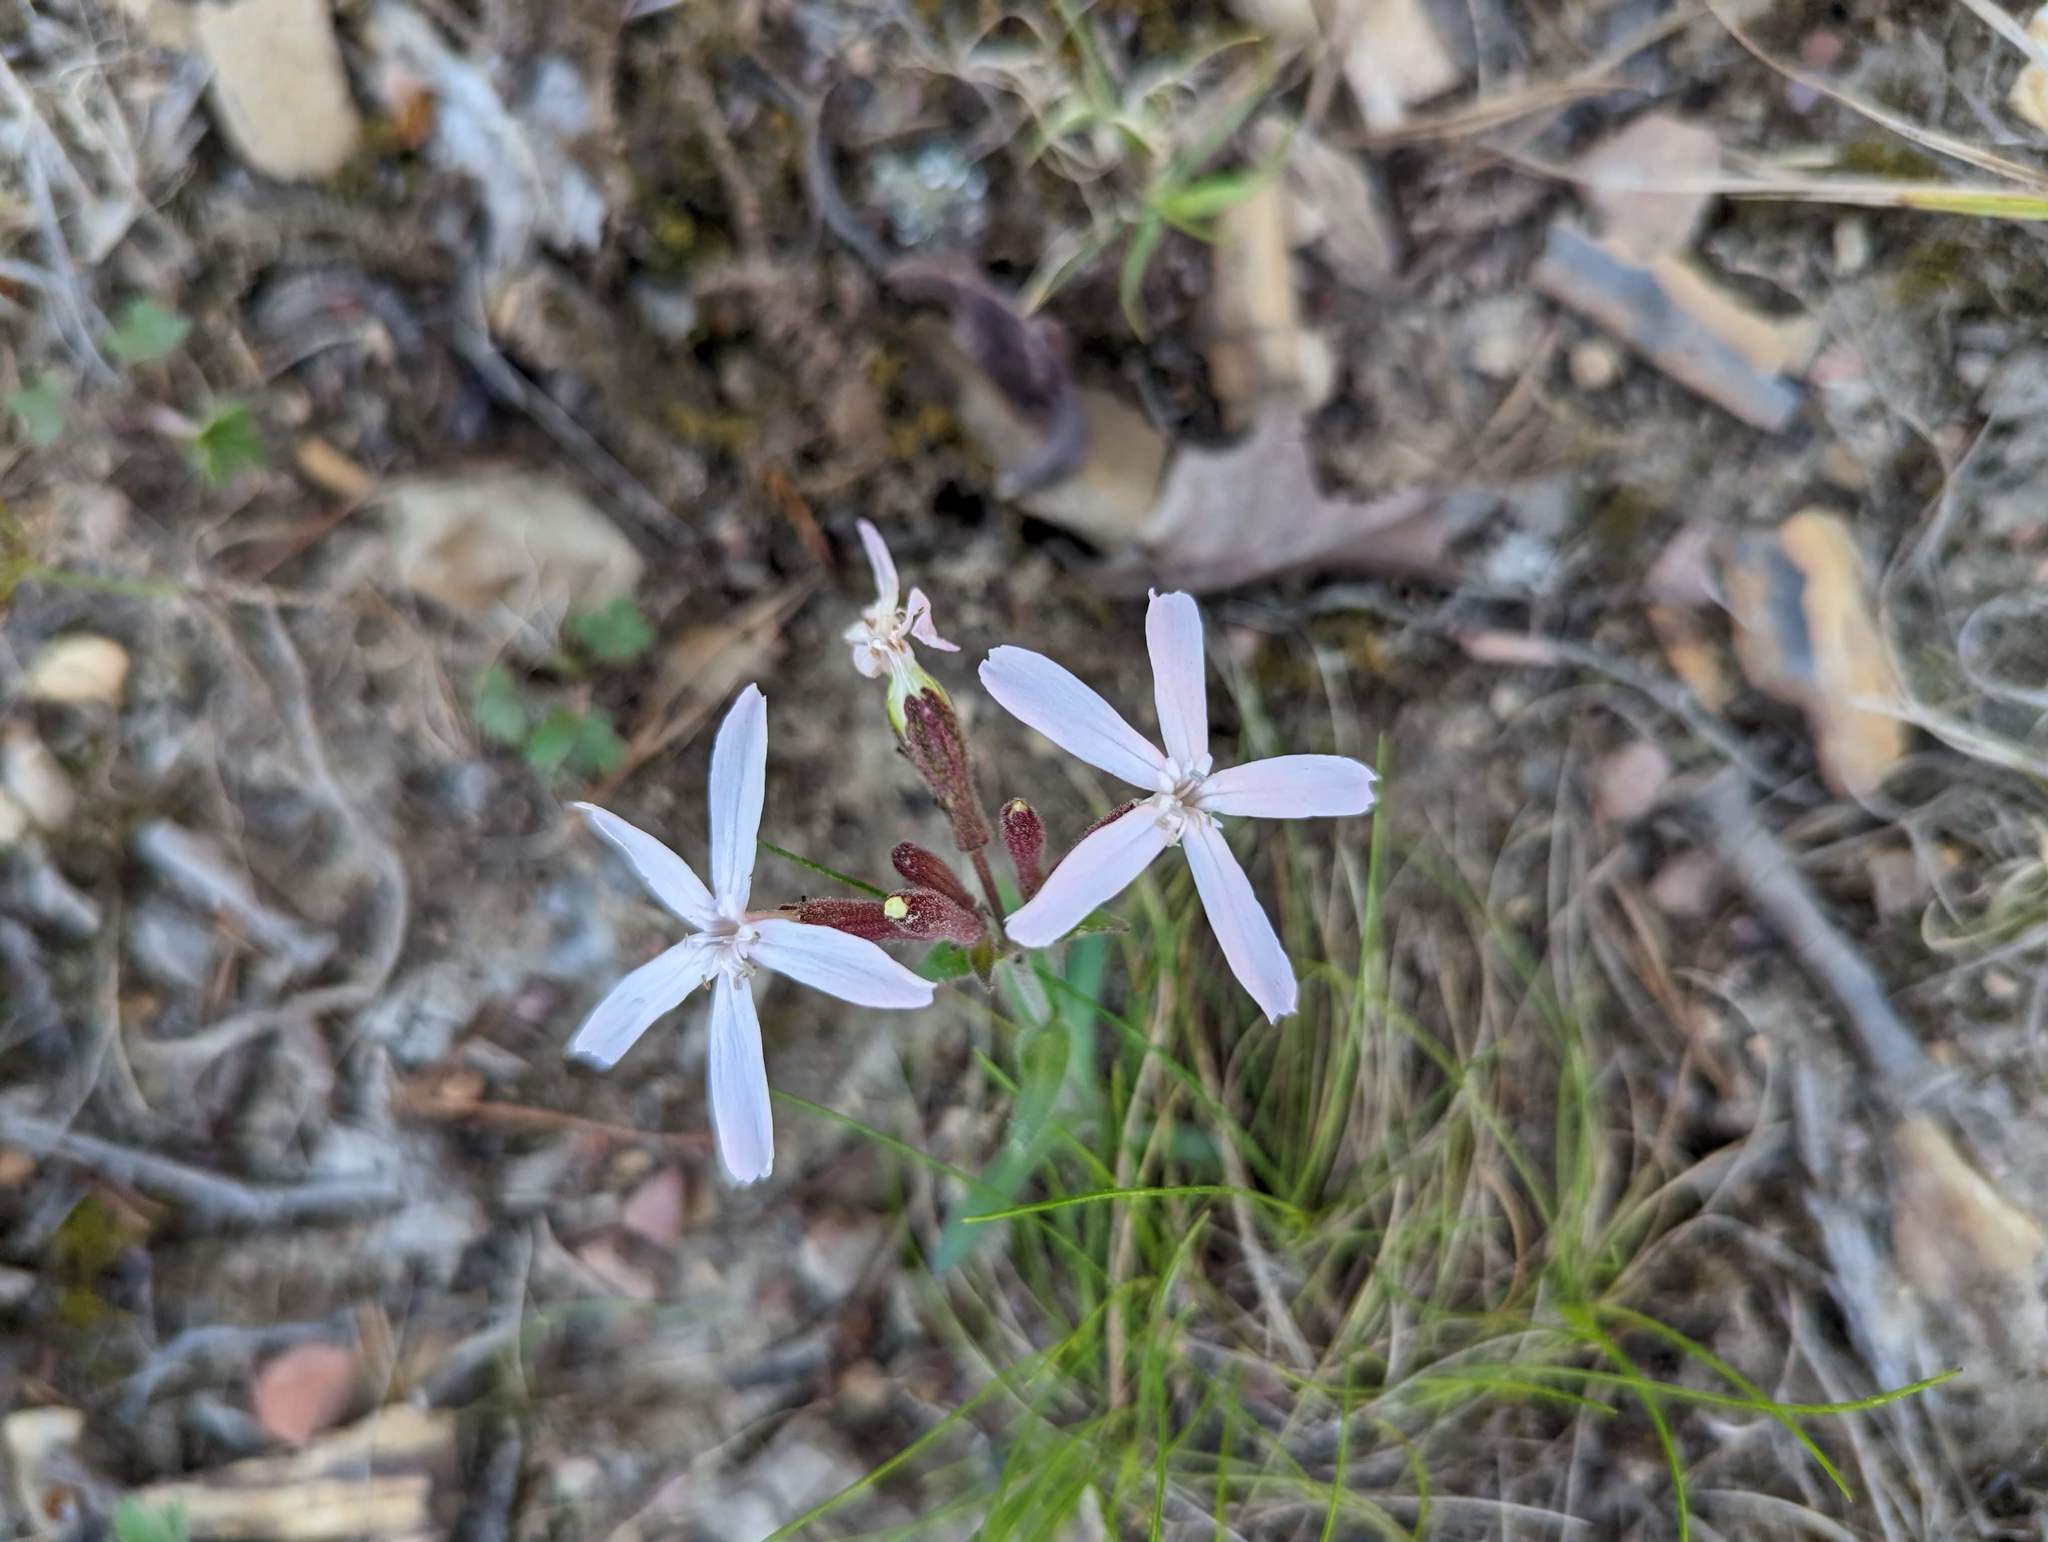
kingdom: Plantae
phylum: Tracheophyta
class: Magnoliopsida
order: Caryophyllales
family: Caryophyllaceae
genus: Silene
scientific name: Silene caroliniana
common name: Sticky catchfly
